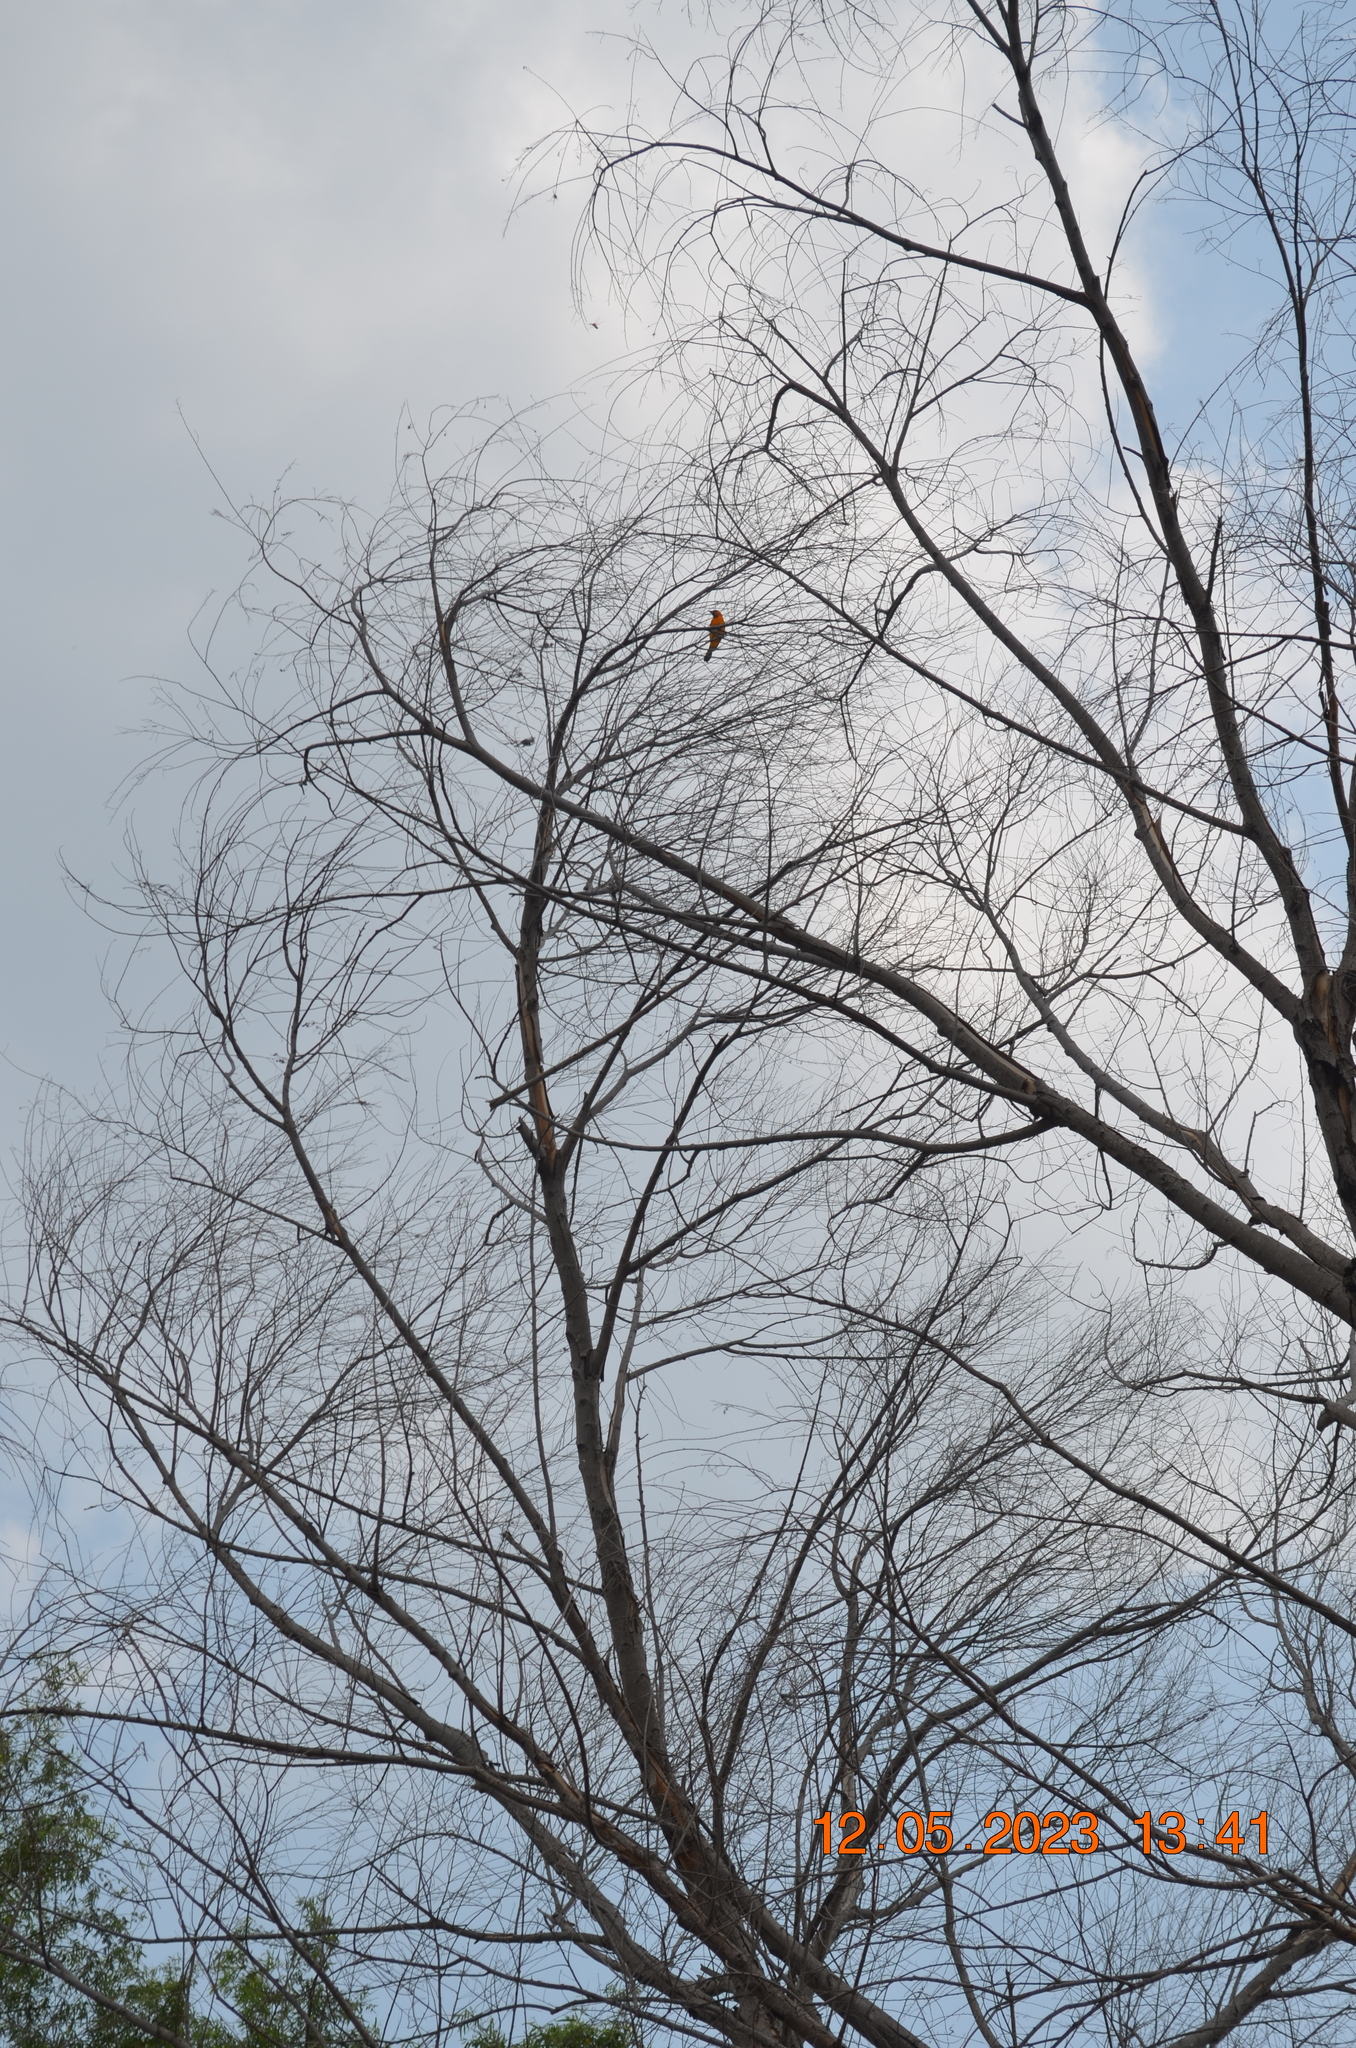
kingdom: Animalia
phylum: Chordata
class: Aves
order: Passeriformes
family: Icteridae
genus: Icterus
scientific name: Icterus gularis
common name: Altamira oriole
